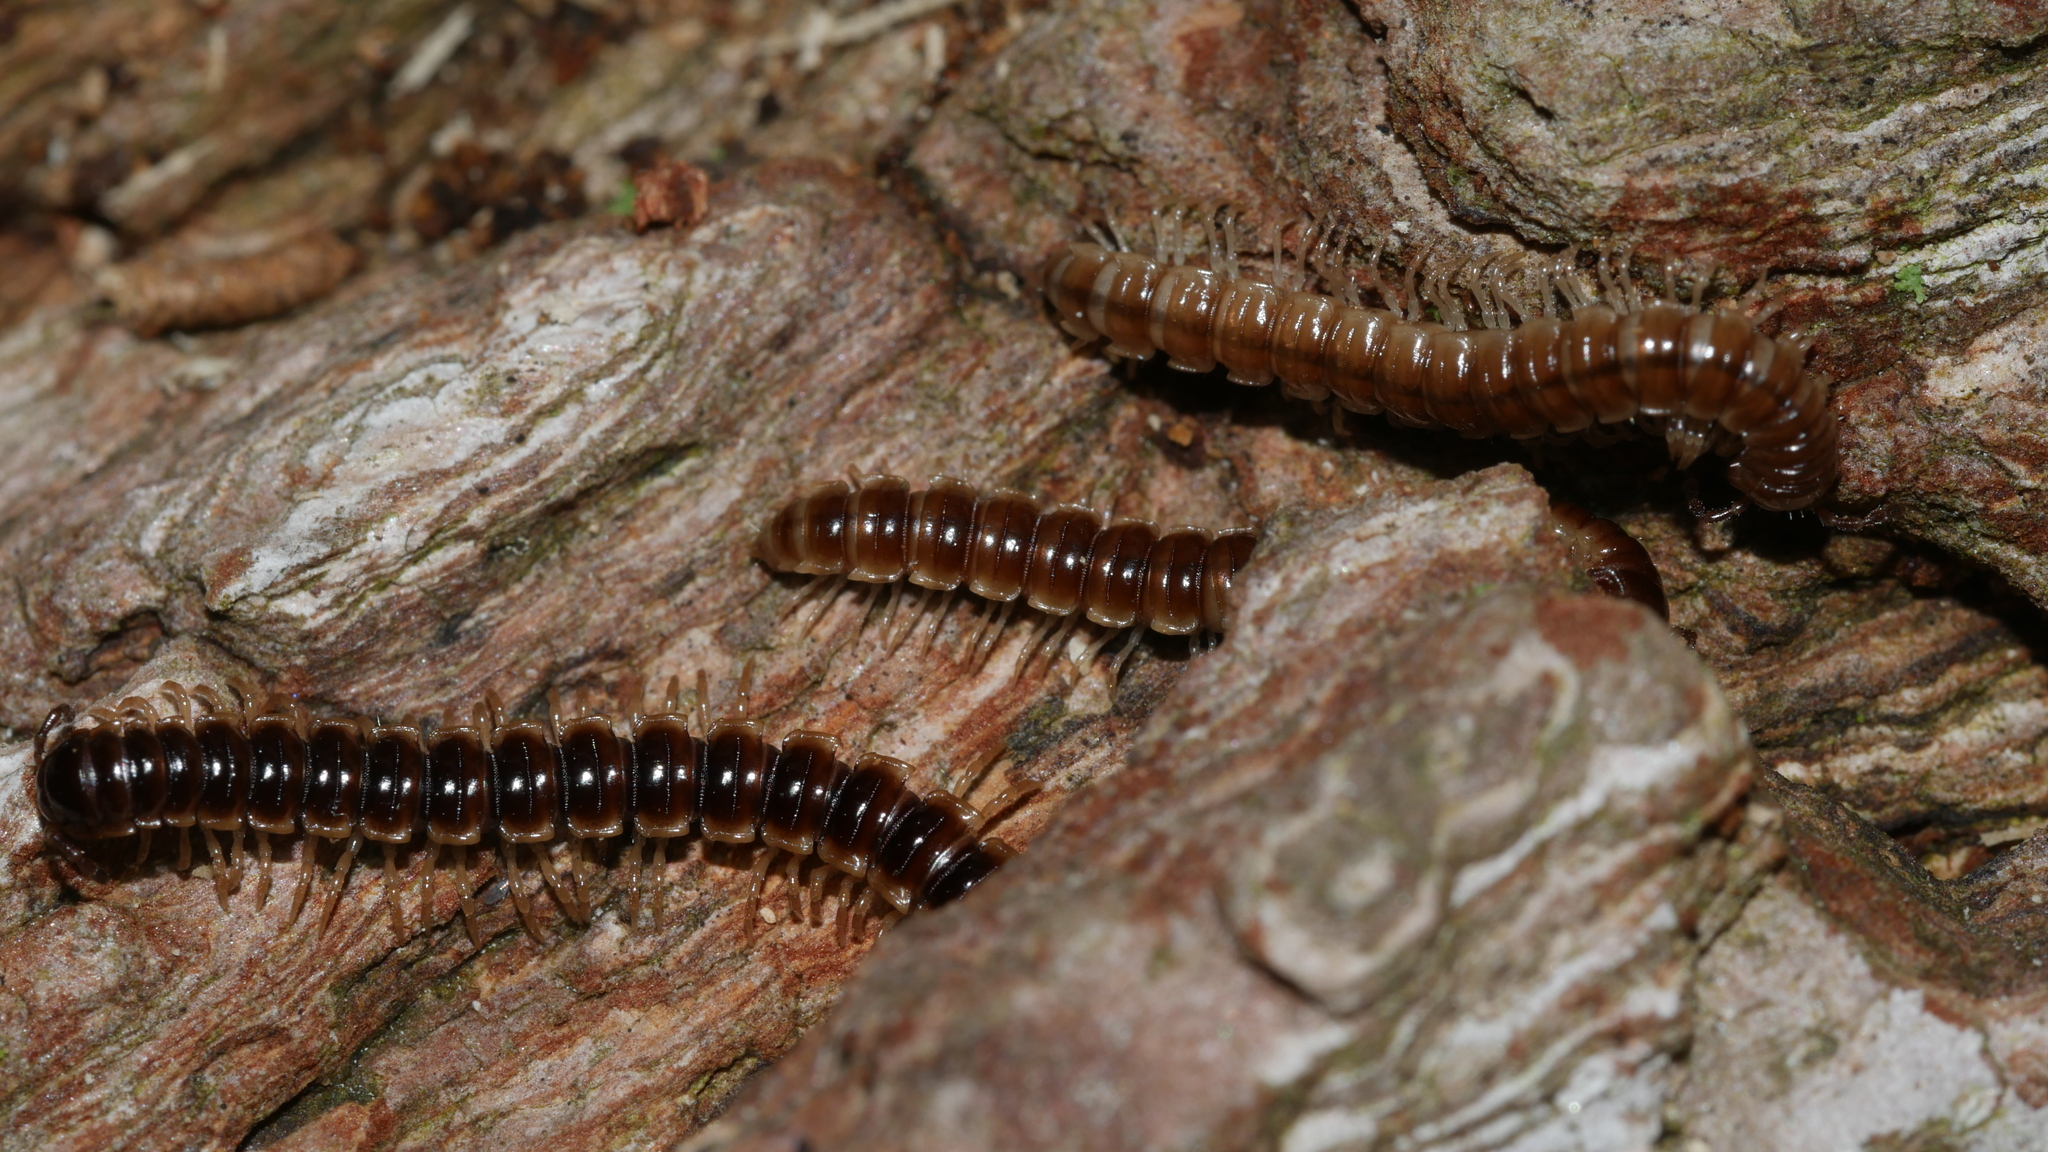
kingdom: Animalia
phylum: Arthropoda
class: Diplopoda
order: Polydesmida
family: Paradoxosomatidae
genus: Oxidus
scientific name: Oxidus gracilis
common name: Greenhouse millipede
